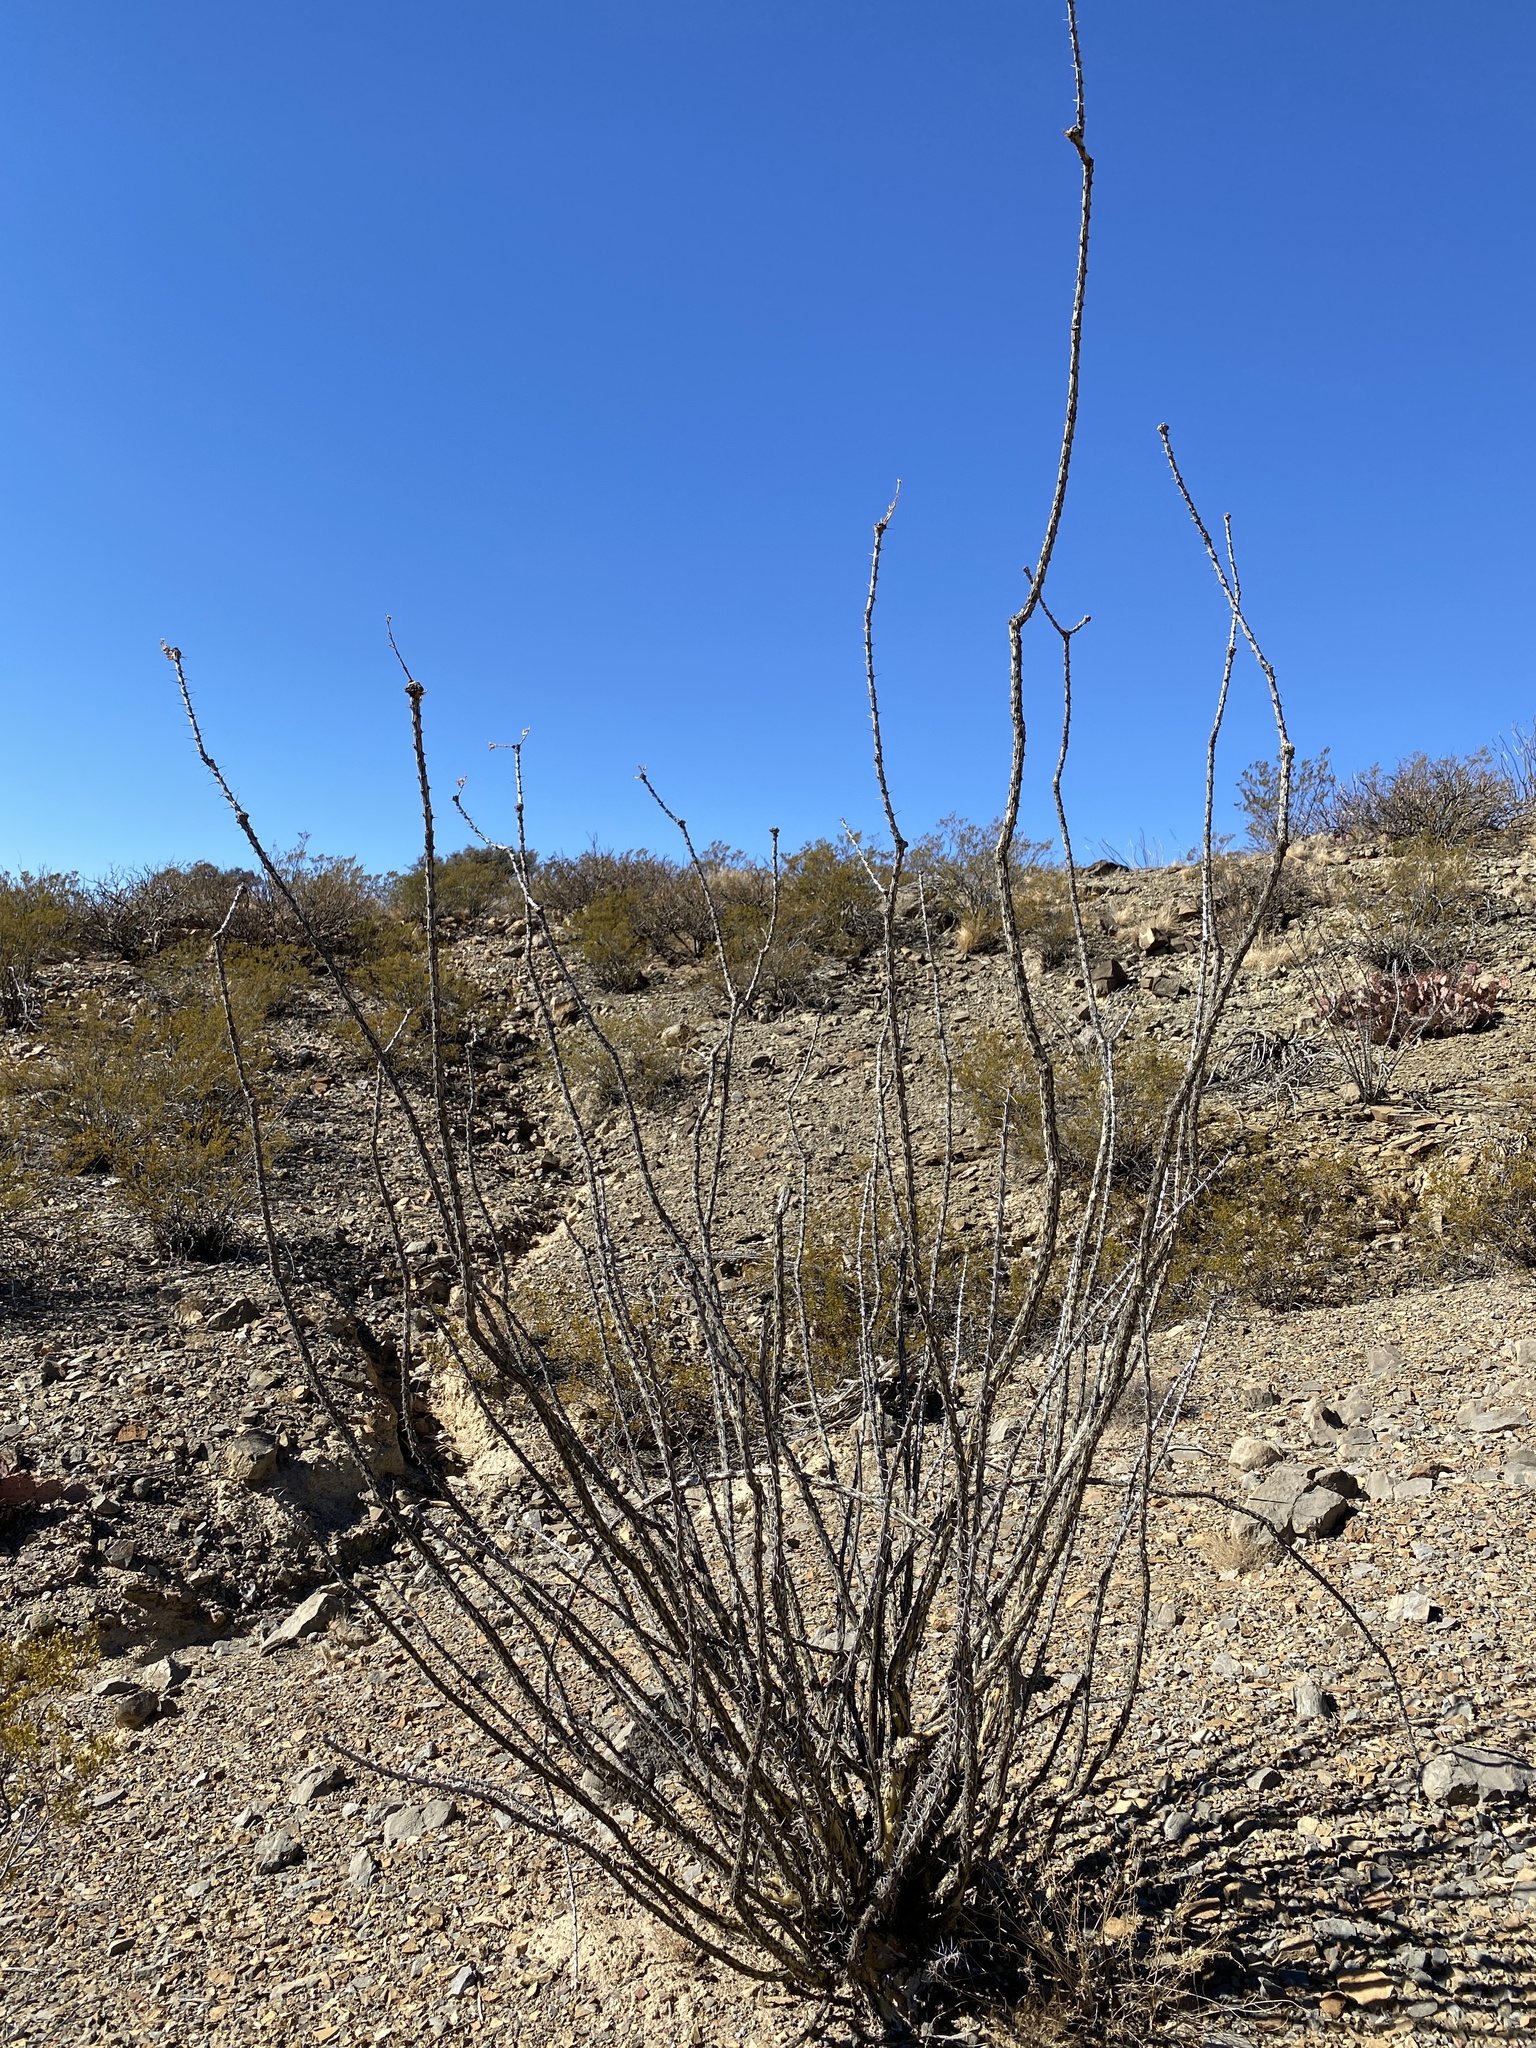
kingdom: Plantae
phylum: Tracheophyta
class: Magnoliopsida
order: Ericales
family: Fouquieriaceae
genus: Fouquieria
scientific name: Fouquieria splendens
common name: Vine-cactus
